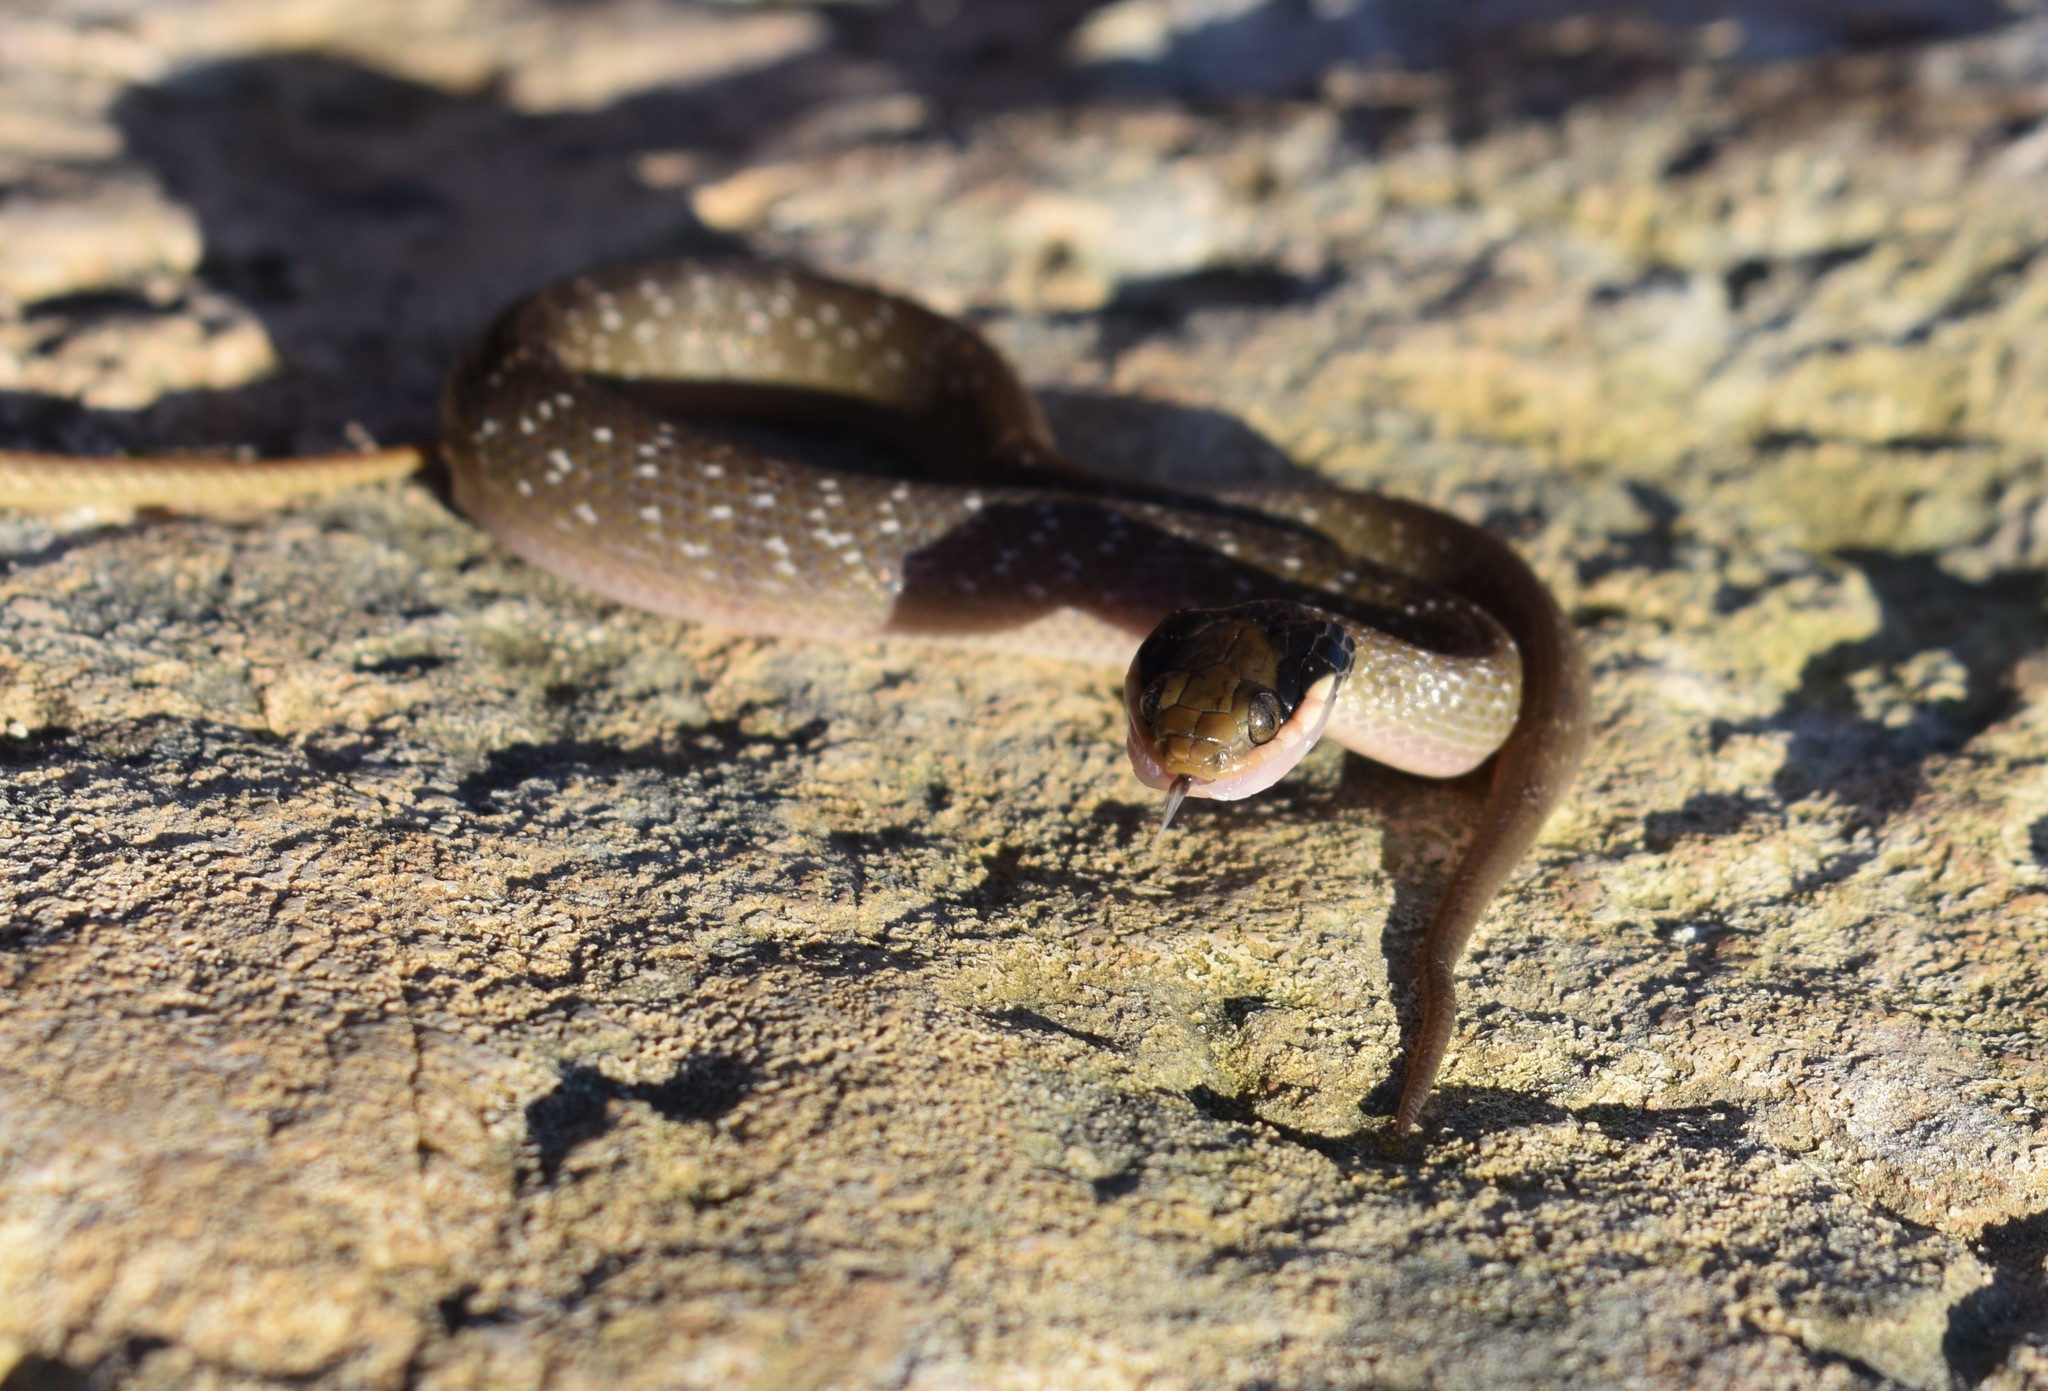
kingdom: Animalia
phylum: Chordata
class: Squamata
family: Colubridae
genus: Crotaphopeltis
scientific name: Crotaphopeltis hotamboeia
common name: Red-lipped snake
